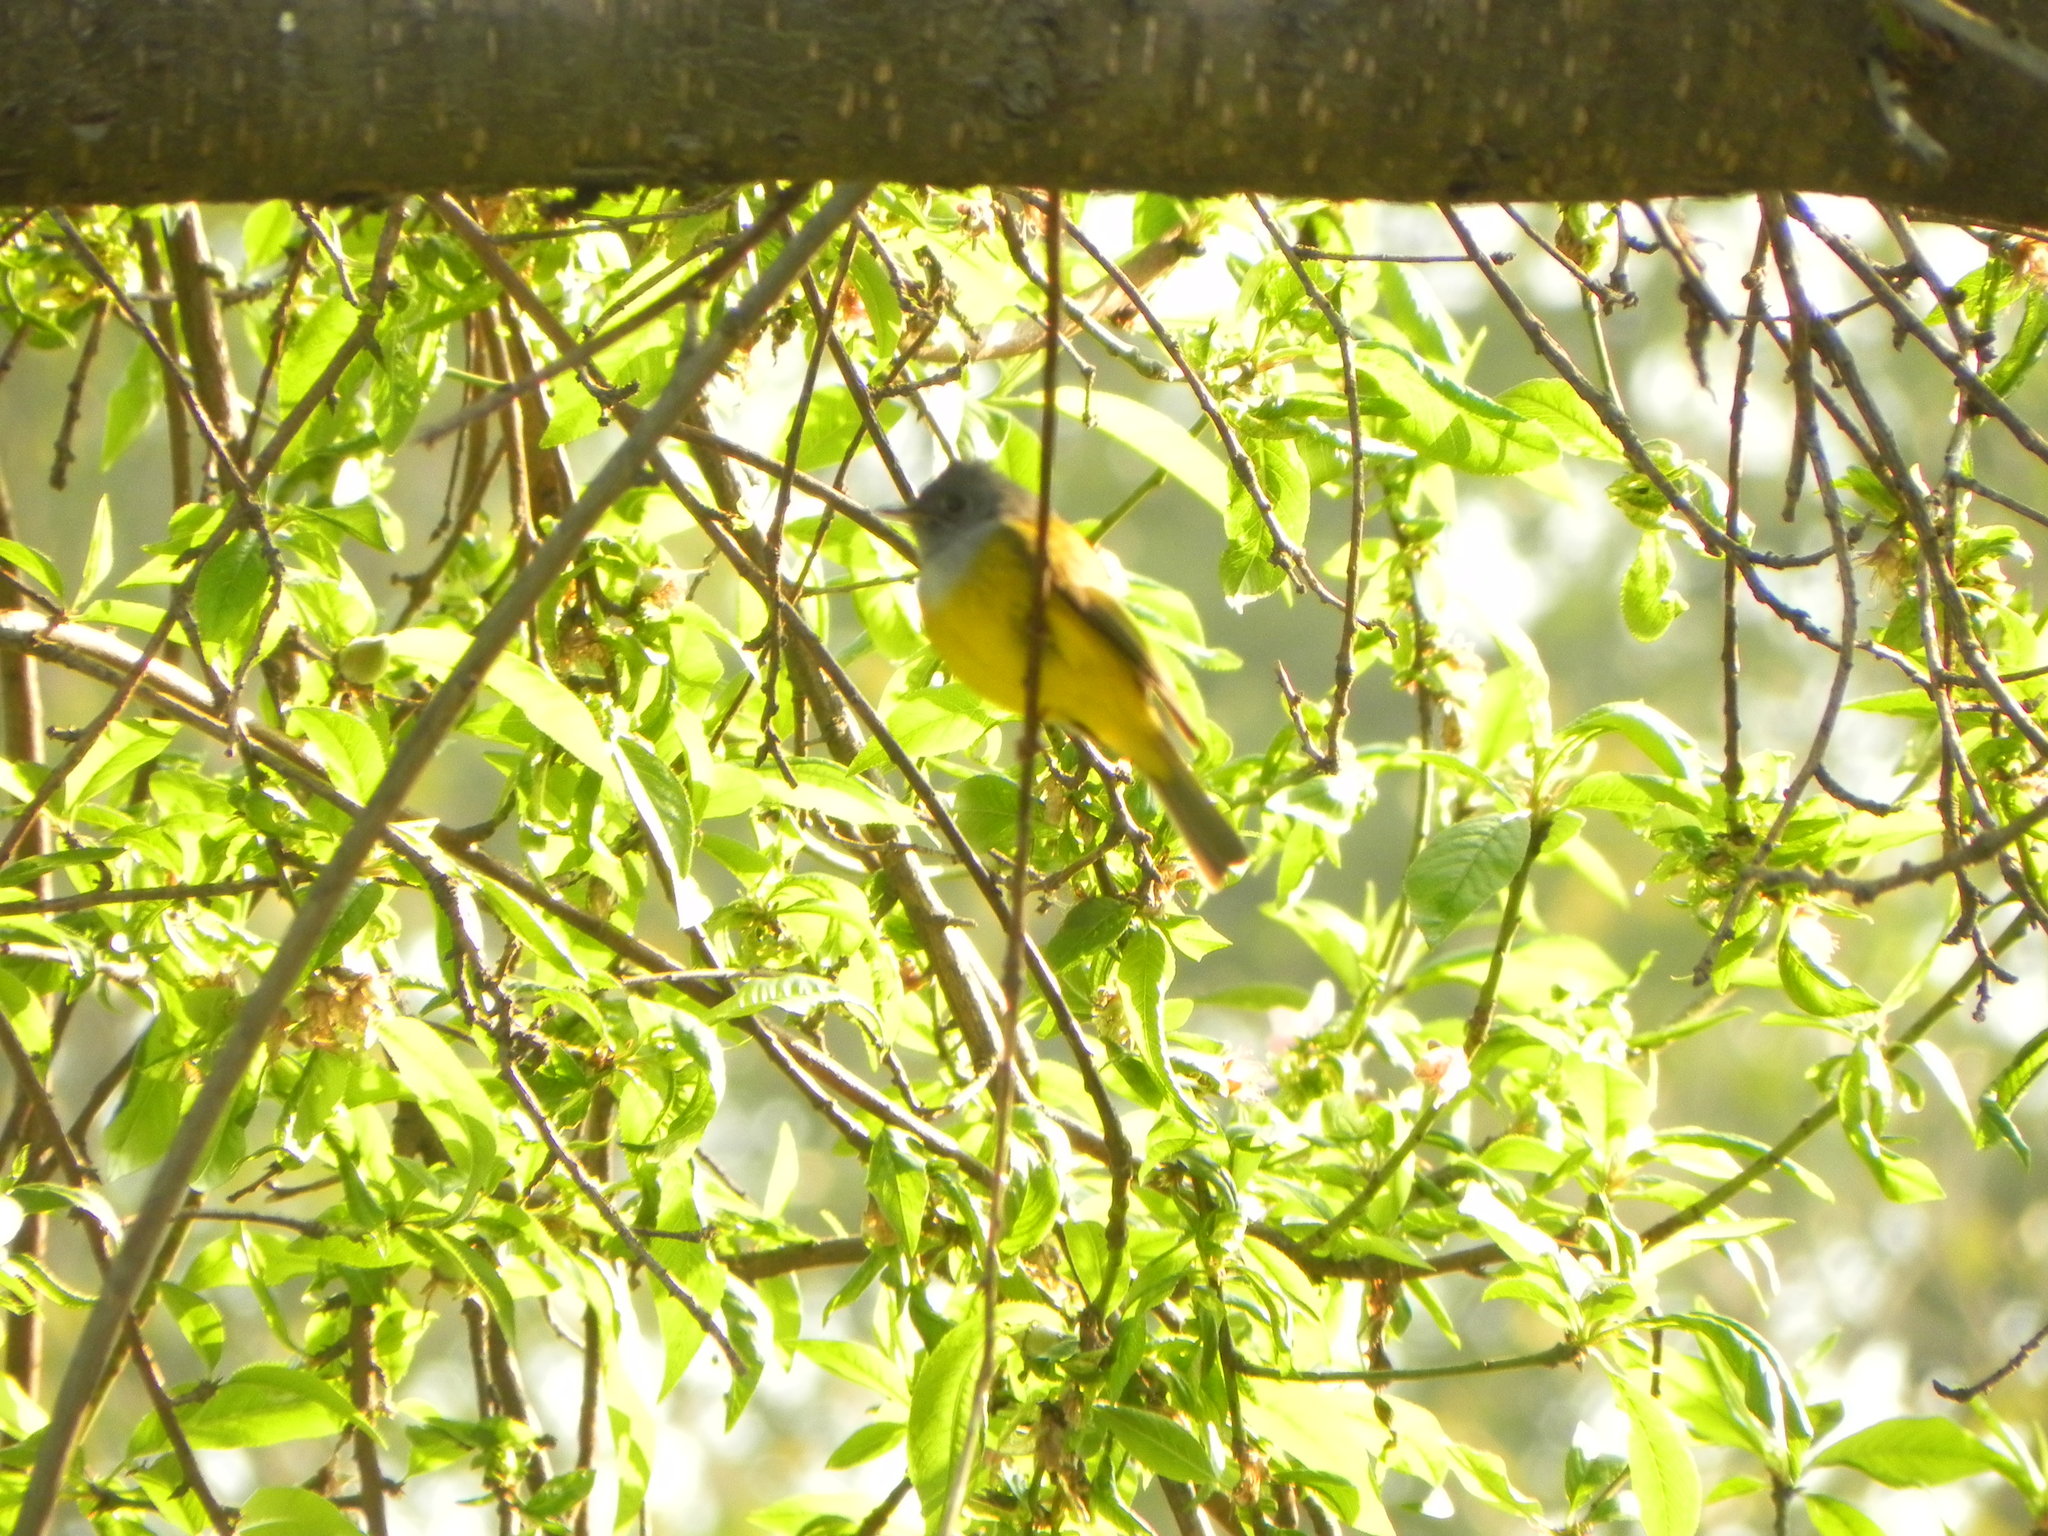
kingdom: Animalia
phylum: Chordata
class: Aves
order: Passeriformes
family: Stenostiridae
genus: Culicicapa
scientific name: Culicicapa ceylonensis
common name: Grey-headed canary-flycatcher
